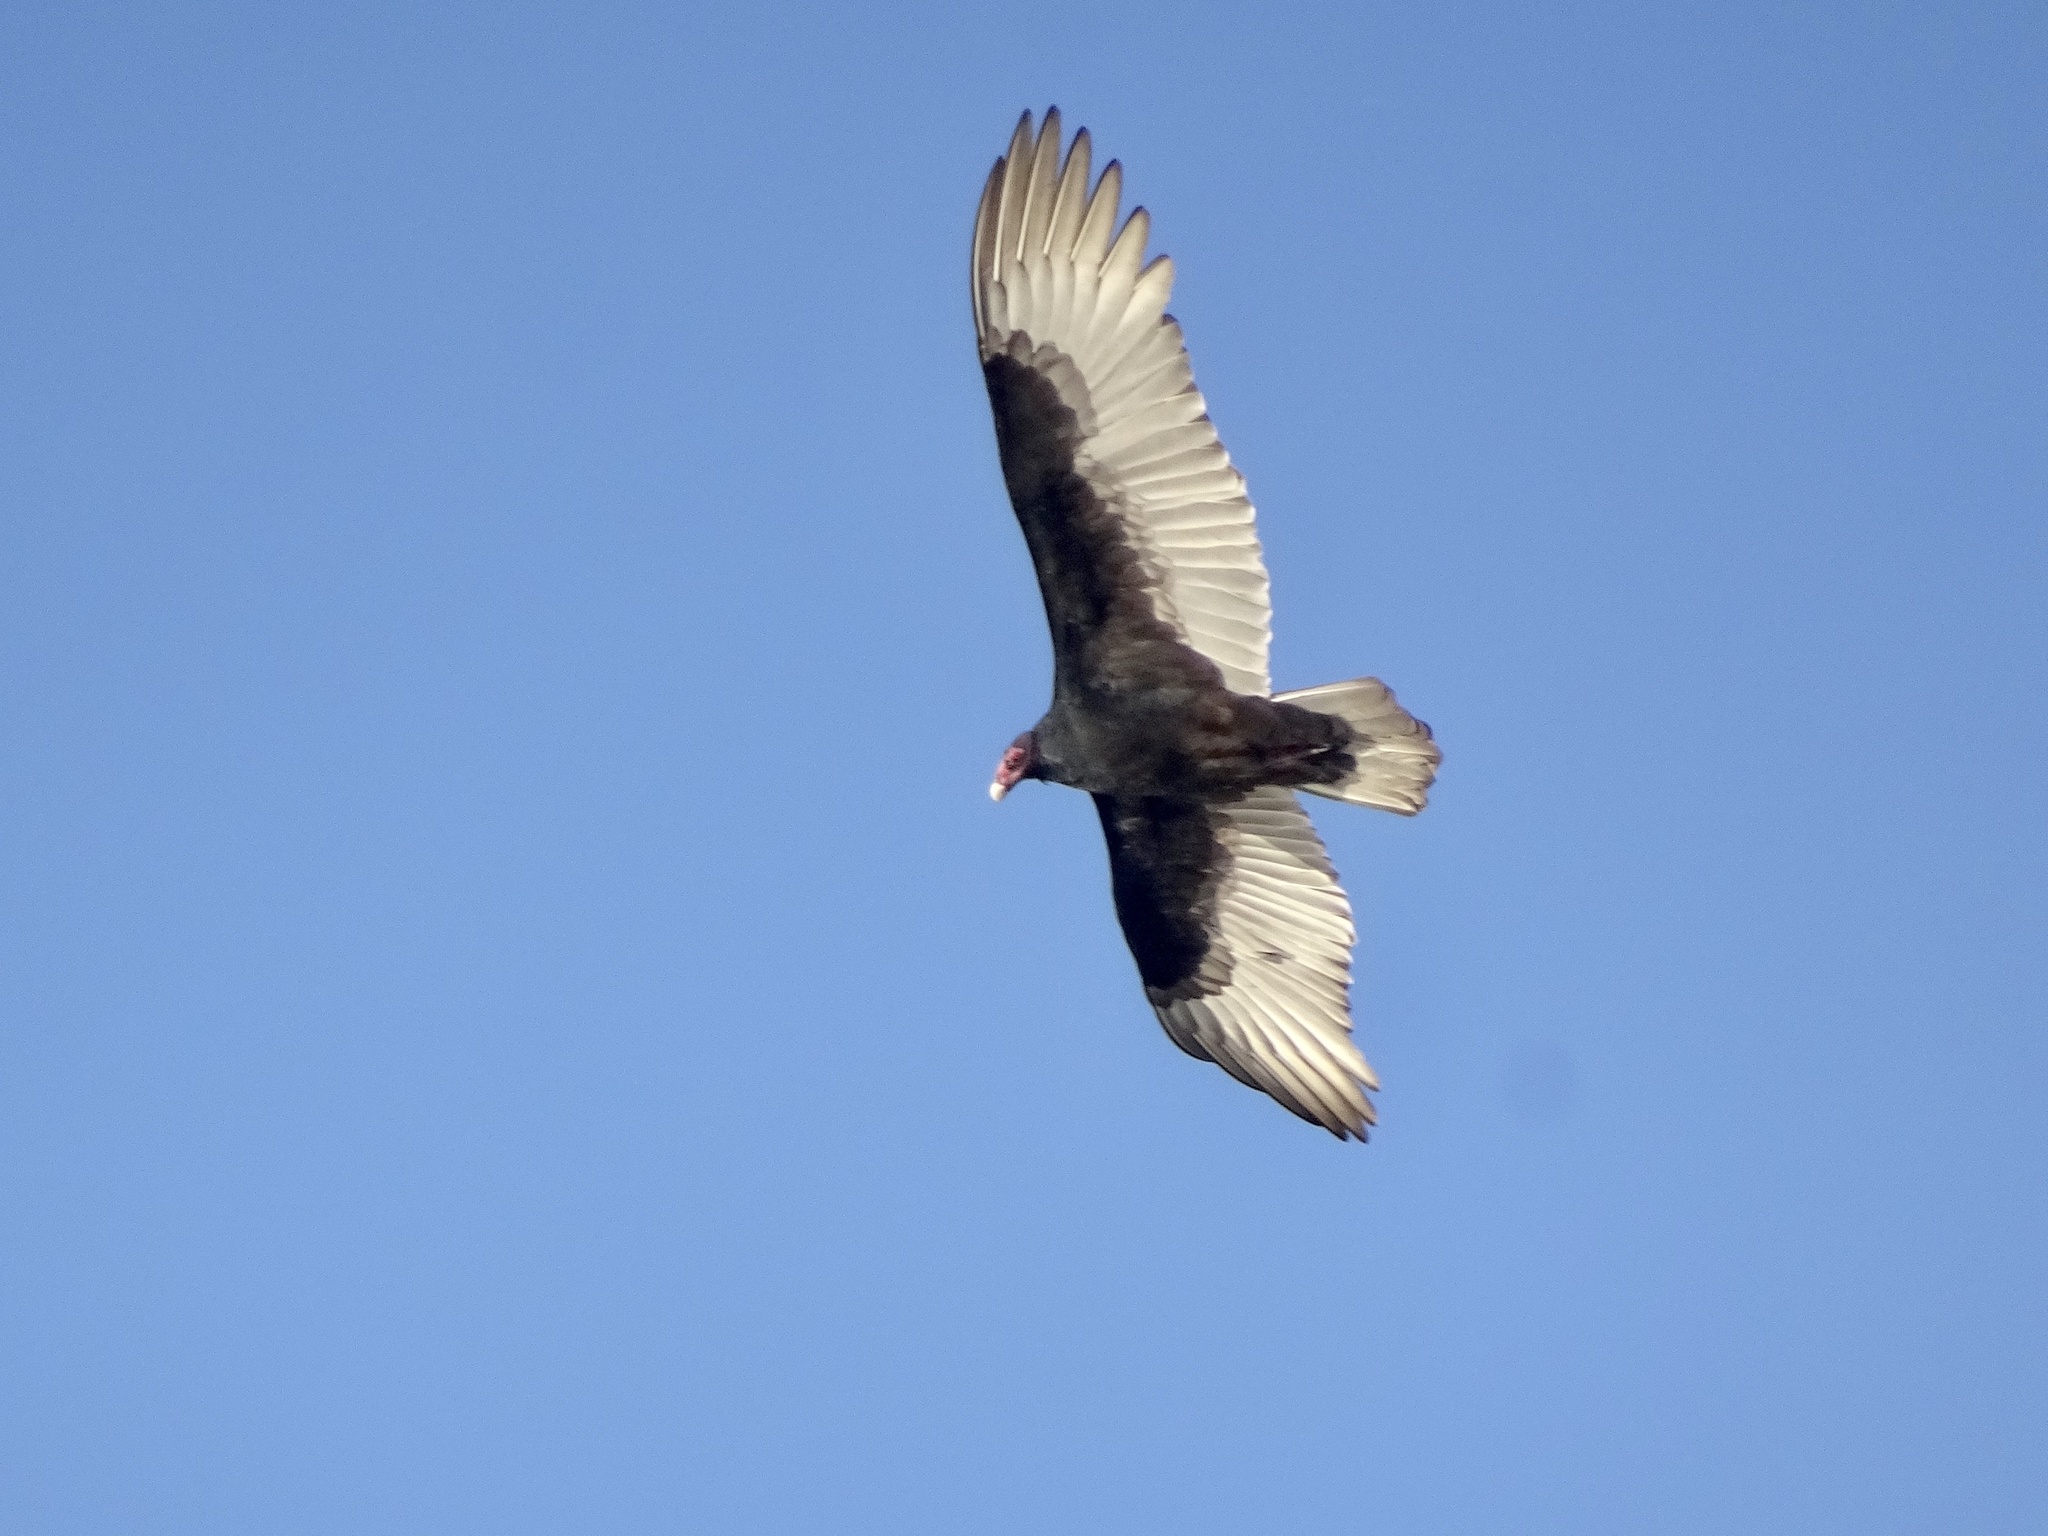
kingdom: Animalia
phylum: Chordata
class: Aves
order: Accipitriformes
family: Cathartidae
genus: Cathartes
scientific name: Cathartes aura
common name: Turkey vulture
